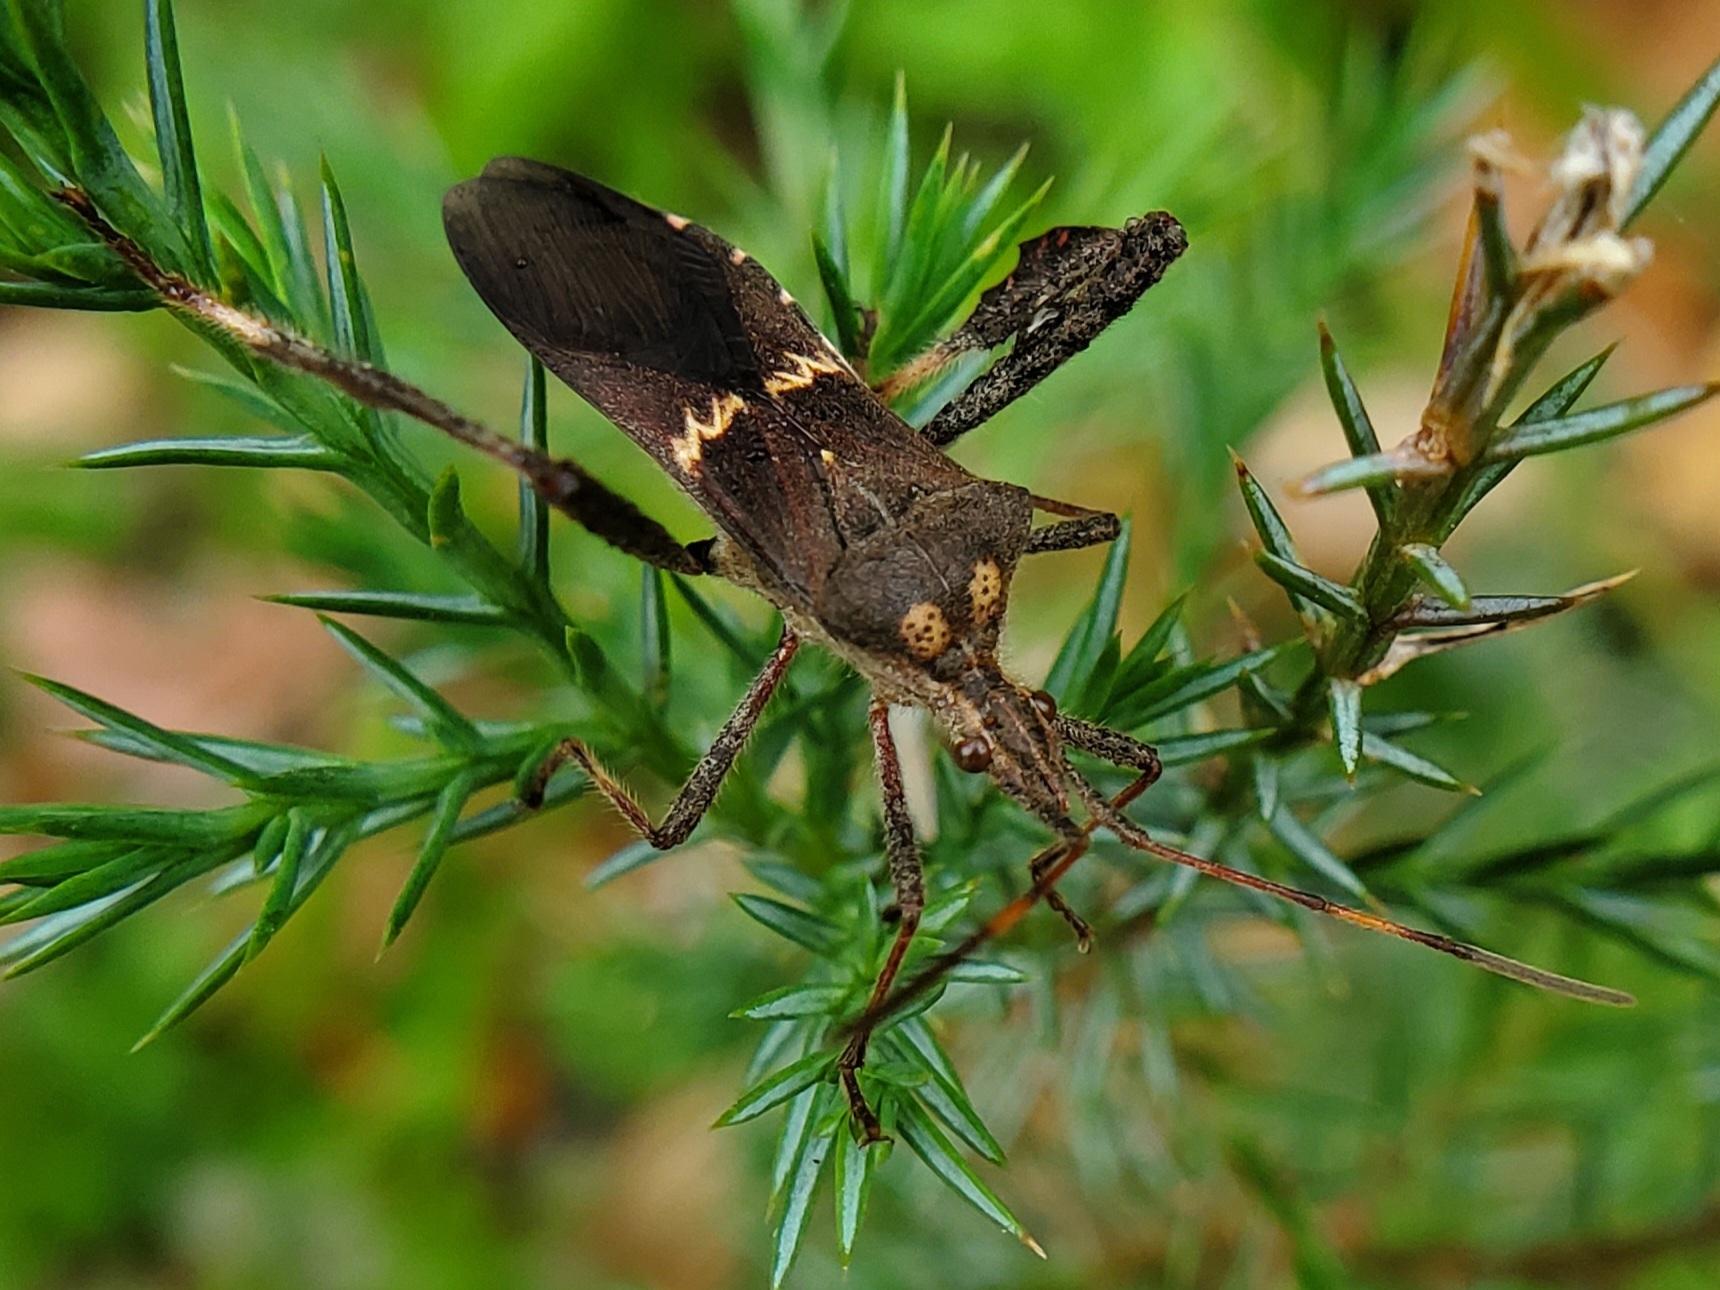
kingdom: Animalia
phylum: Arthropoda
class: Insecta
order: Hemiptera
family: Coreidae
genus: Leptoglossus
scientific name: Leptoglossus zonatus
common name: Large-legged bug
